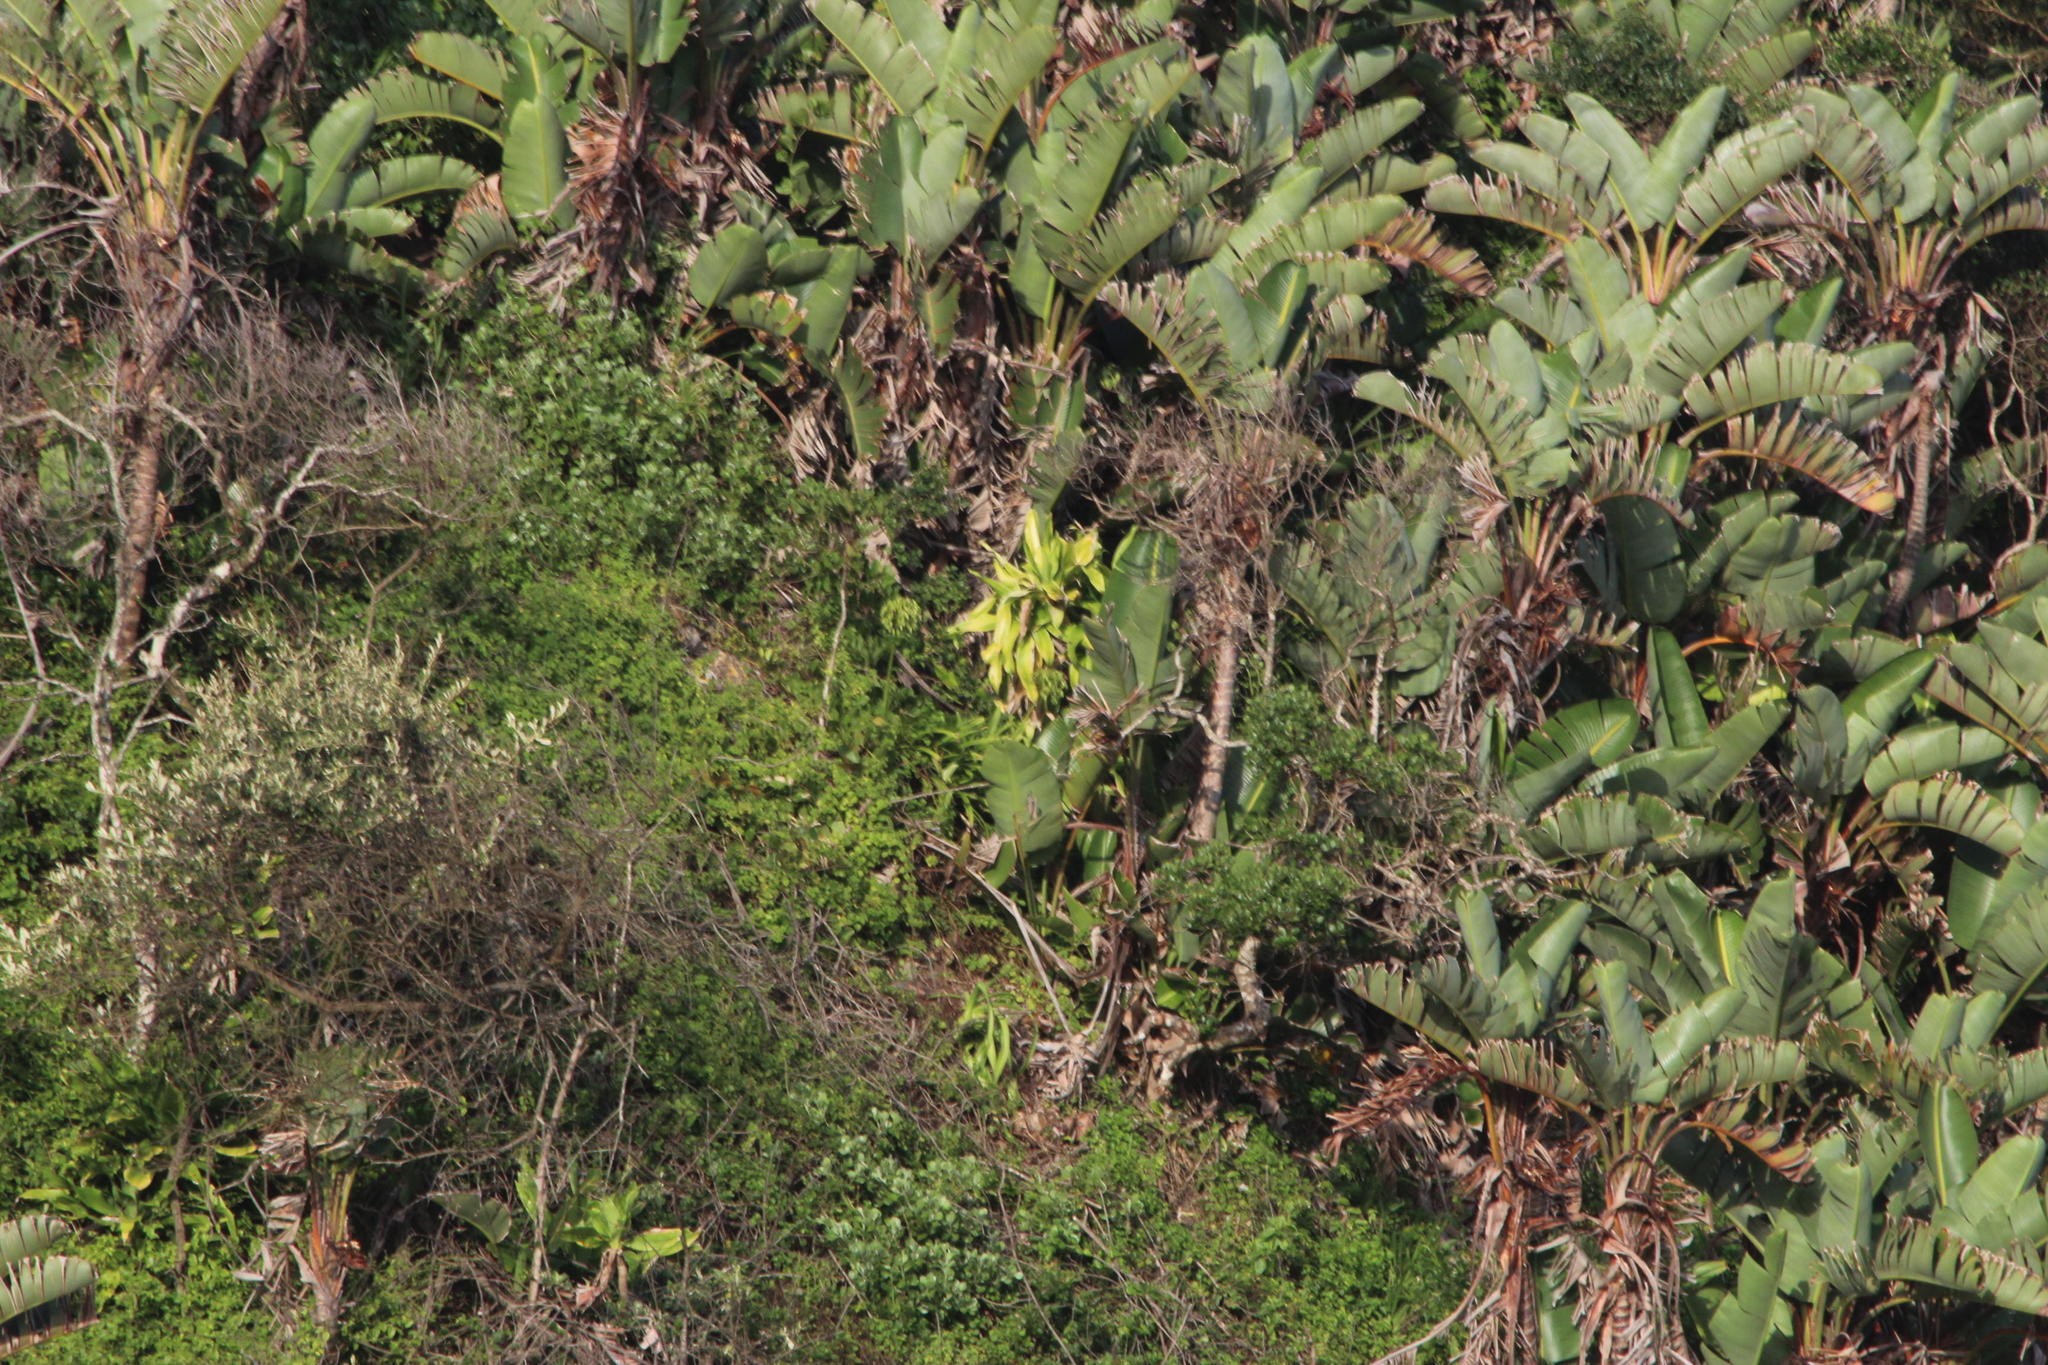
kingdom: Plantae
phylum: Tracheophyta
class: Liliopsida
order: Asparagales
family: Asparagaceae
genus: Dracaena
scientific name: Dracaena aletriformis
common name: Large-leaved dragon tree
